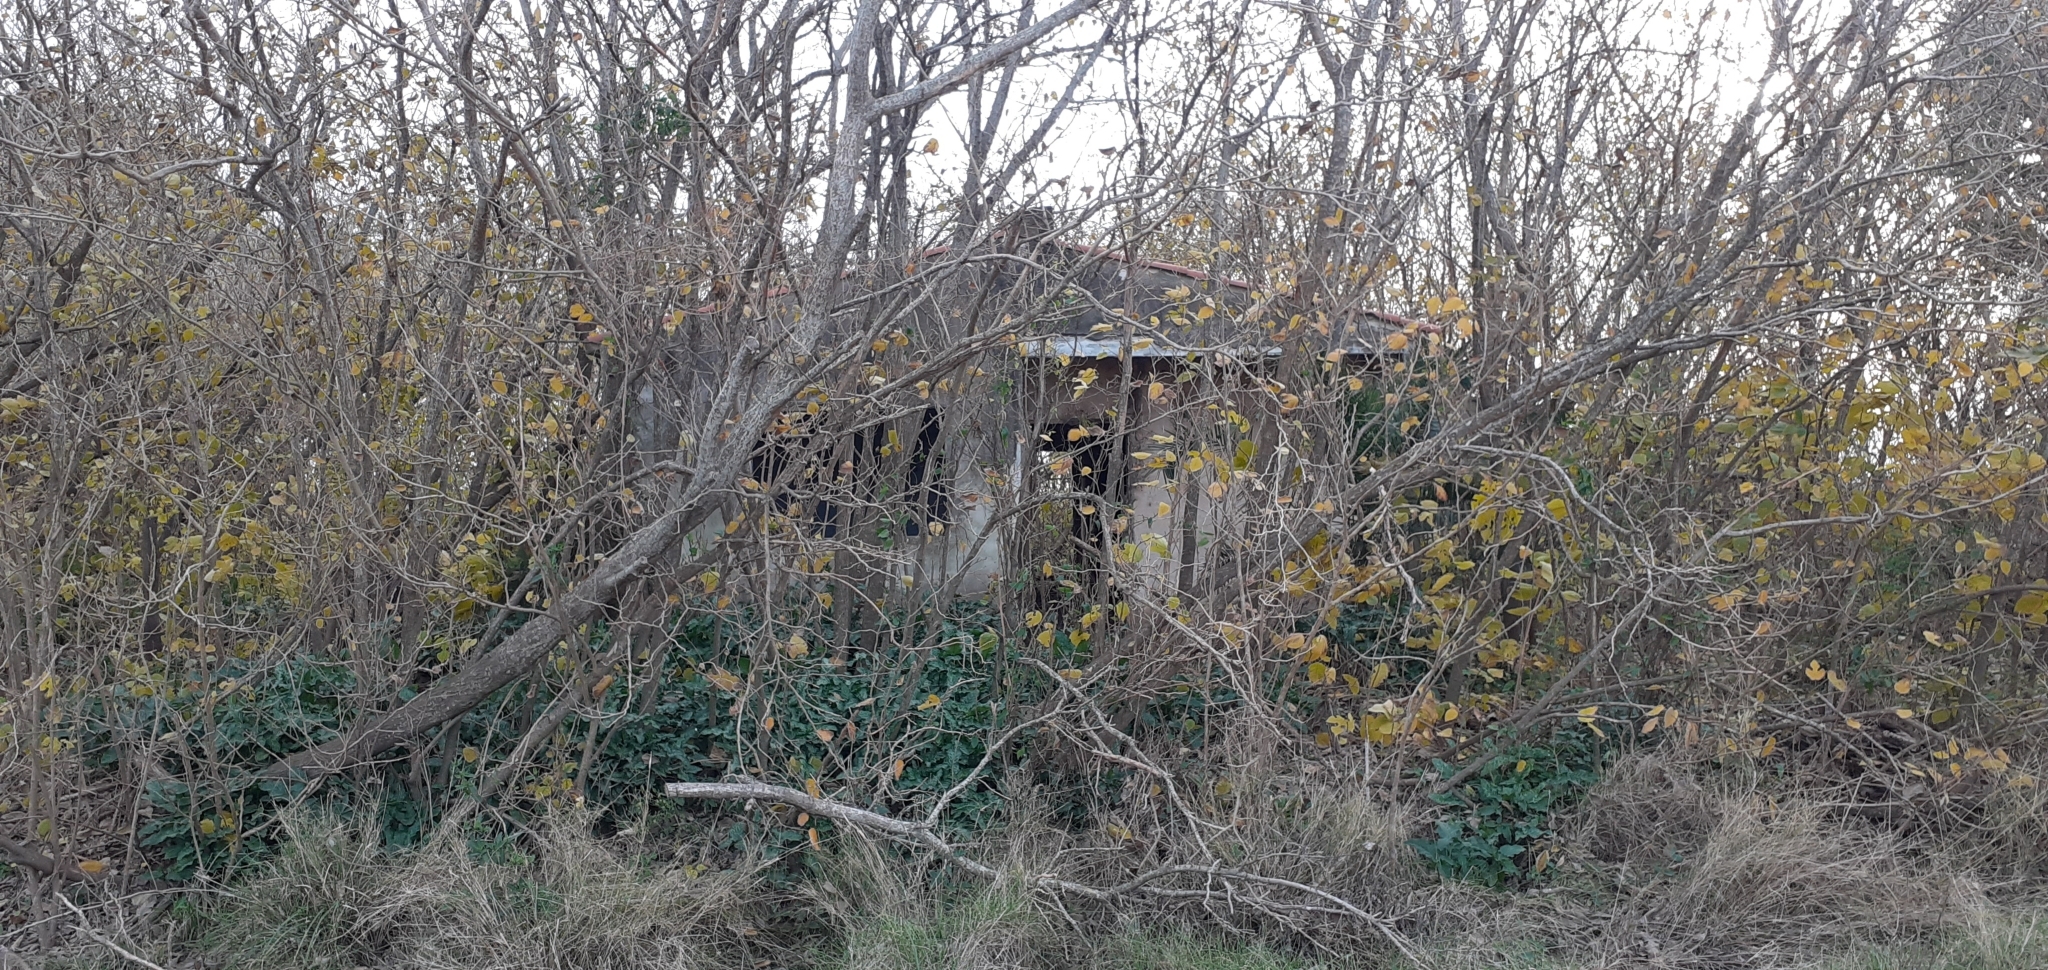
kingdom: Plantae
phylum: Tracheophyta
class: Magnoliopsida
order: Santalales
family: Cervantesiaceae
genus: Jodina
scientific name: Jodina rhombifolia
